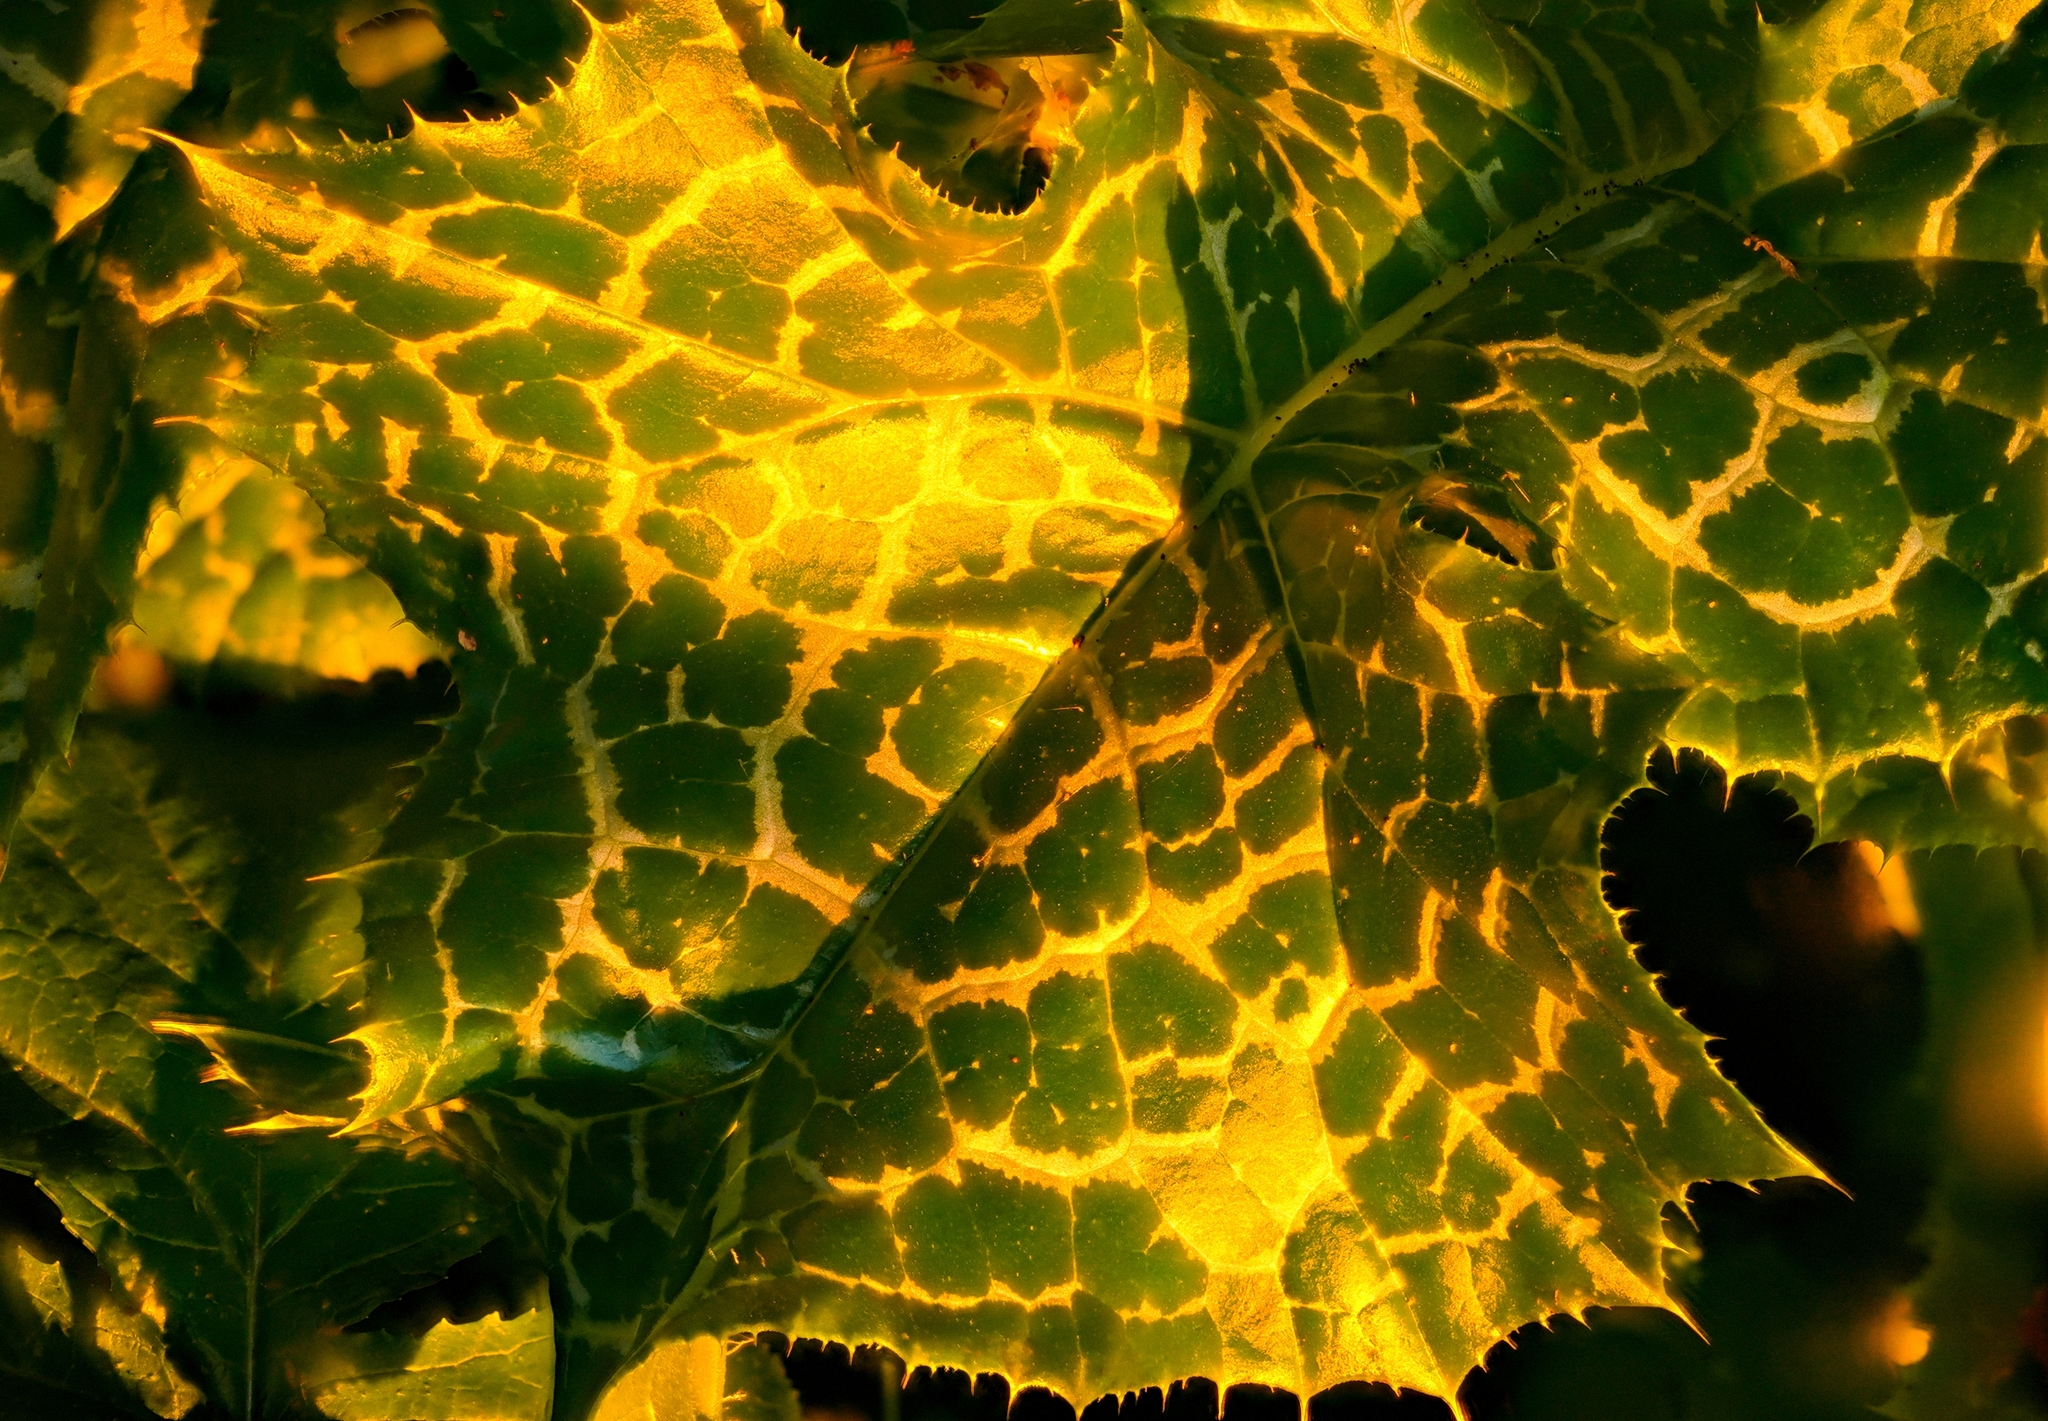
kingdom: Plantae
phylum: Tracheophyta
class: Magnoliopsida
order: Asterales
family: Asteraceae
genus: Silybum
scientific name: Silybum marianum
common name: Milk thistle
